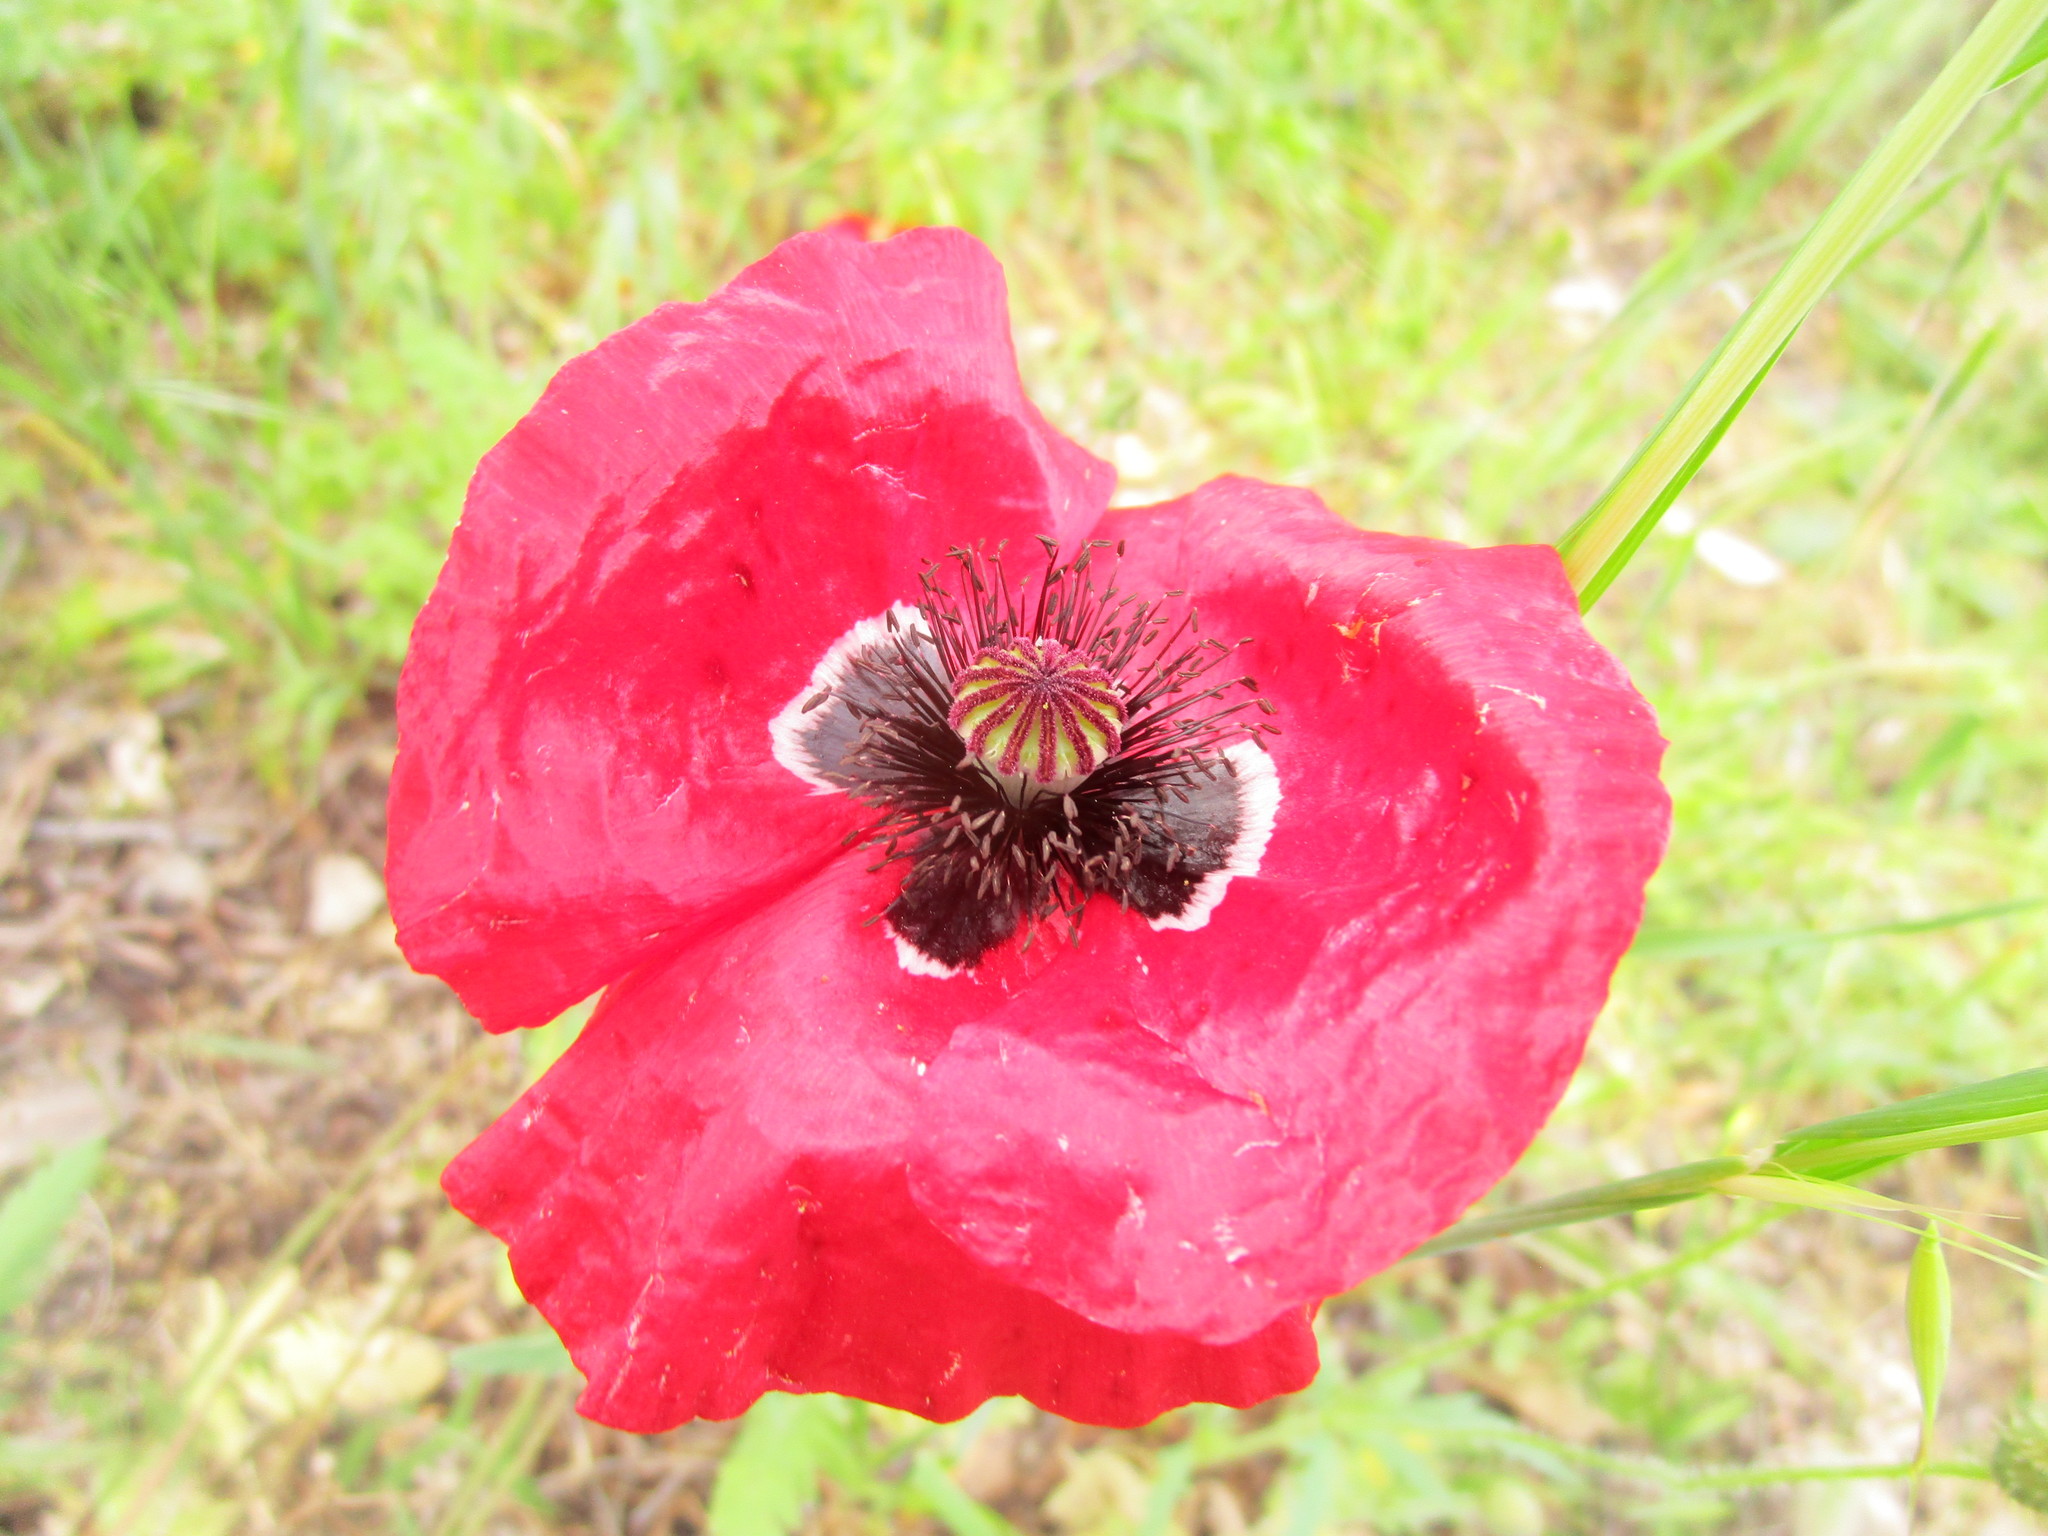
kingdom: Plantae
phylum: Tracheophyta
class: Magnoliopsida
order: Ranunculales
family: Papaveraceae
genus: Papaver
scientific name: Papaver rhoeas
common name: Corn poppy
